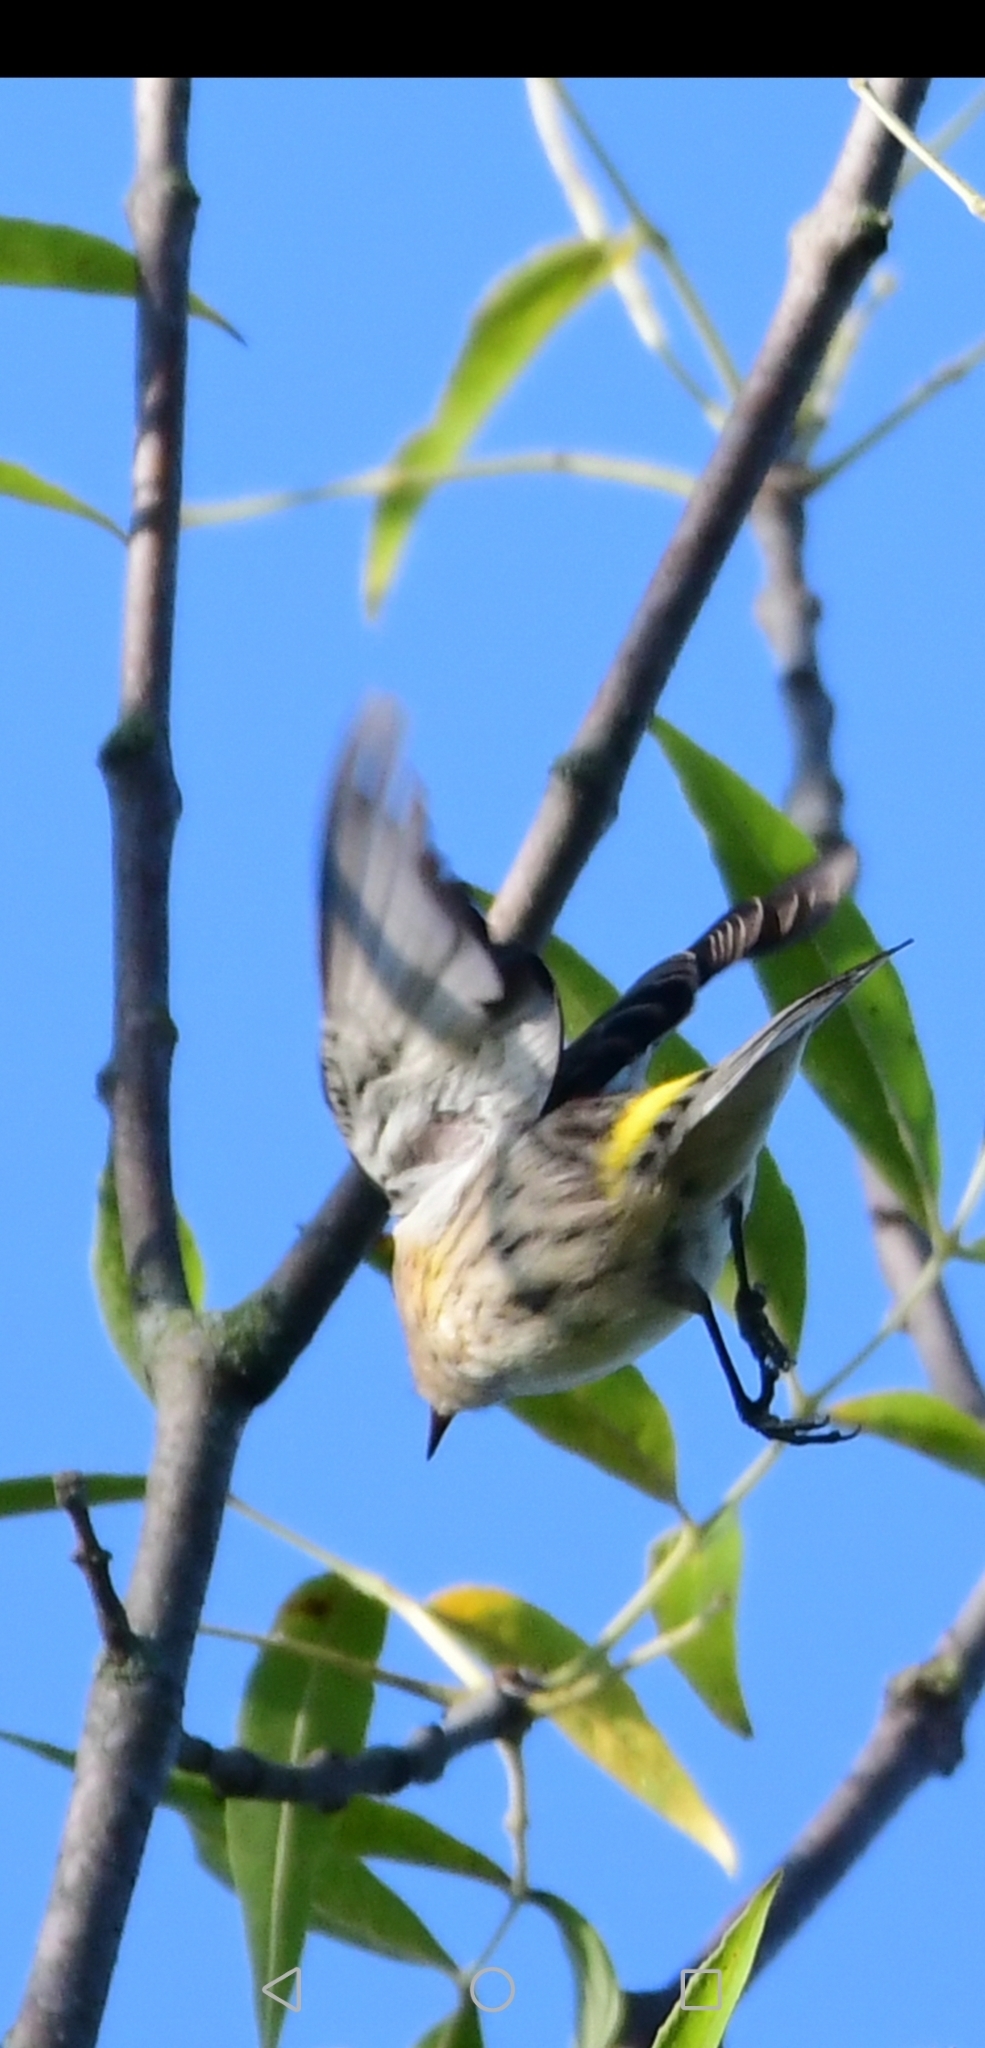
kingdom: Animalia
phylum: Chordata
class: Aves
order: Passeriformes
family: Parulidae
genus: Setophaga
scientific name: Setophaga coronata
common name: Myrtle warbler
